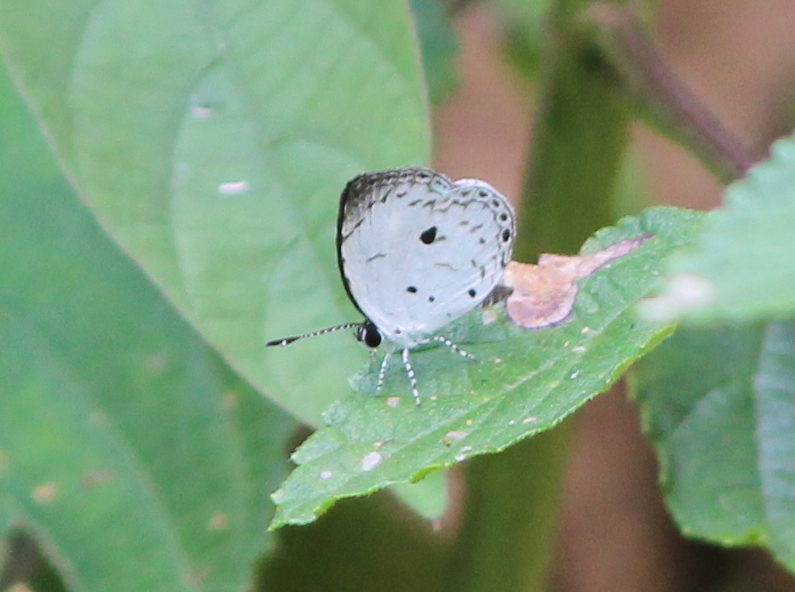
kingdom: Animalia
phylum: Arthropoda
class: Insecta
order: Lepidoptera
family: Lycaenidae
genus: Neopithecops
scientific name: Neopithecops zalmora
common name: Quaker
